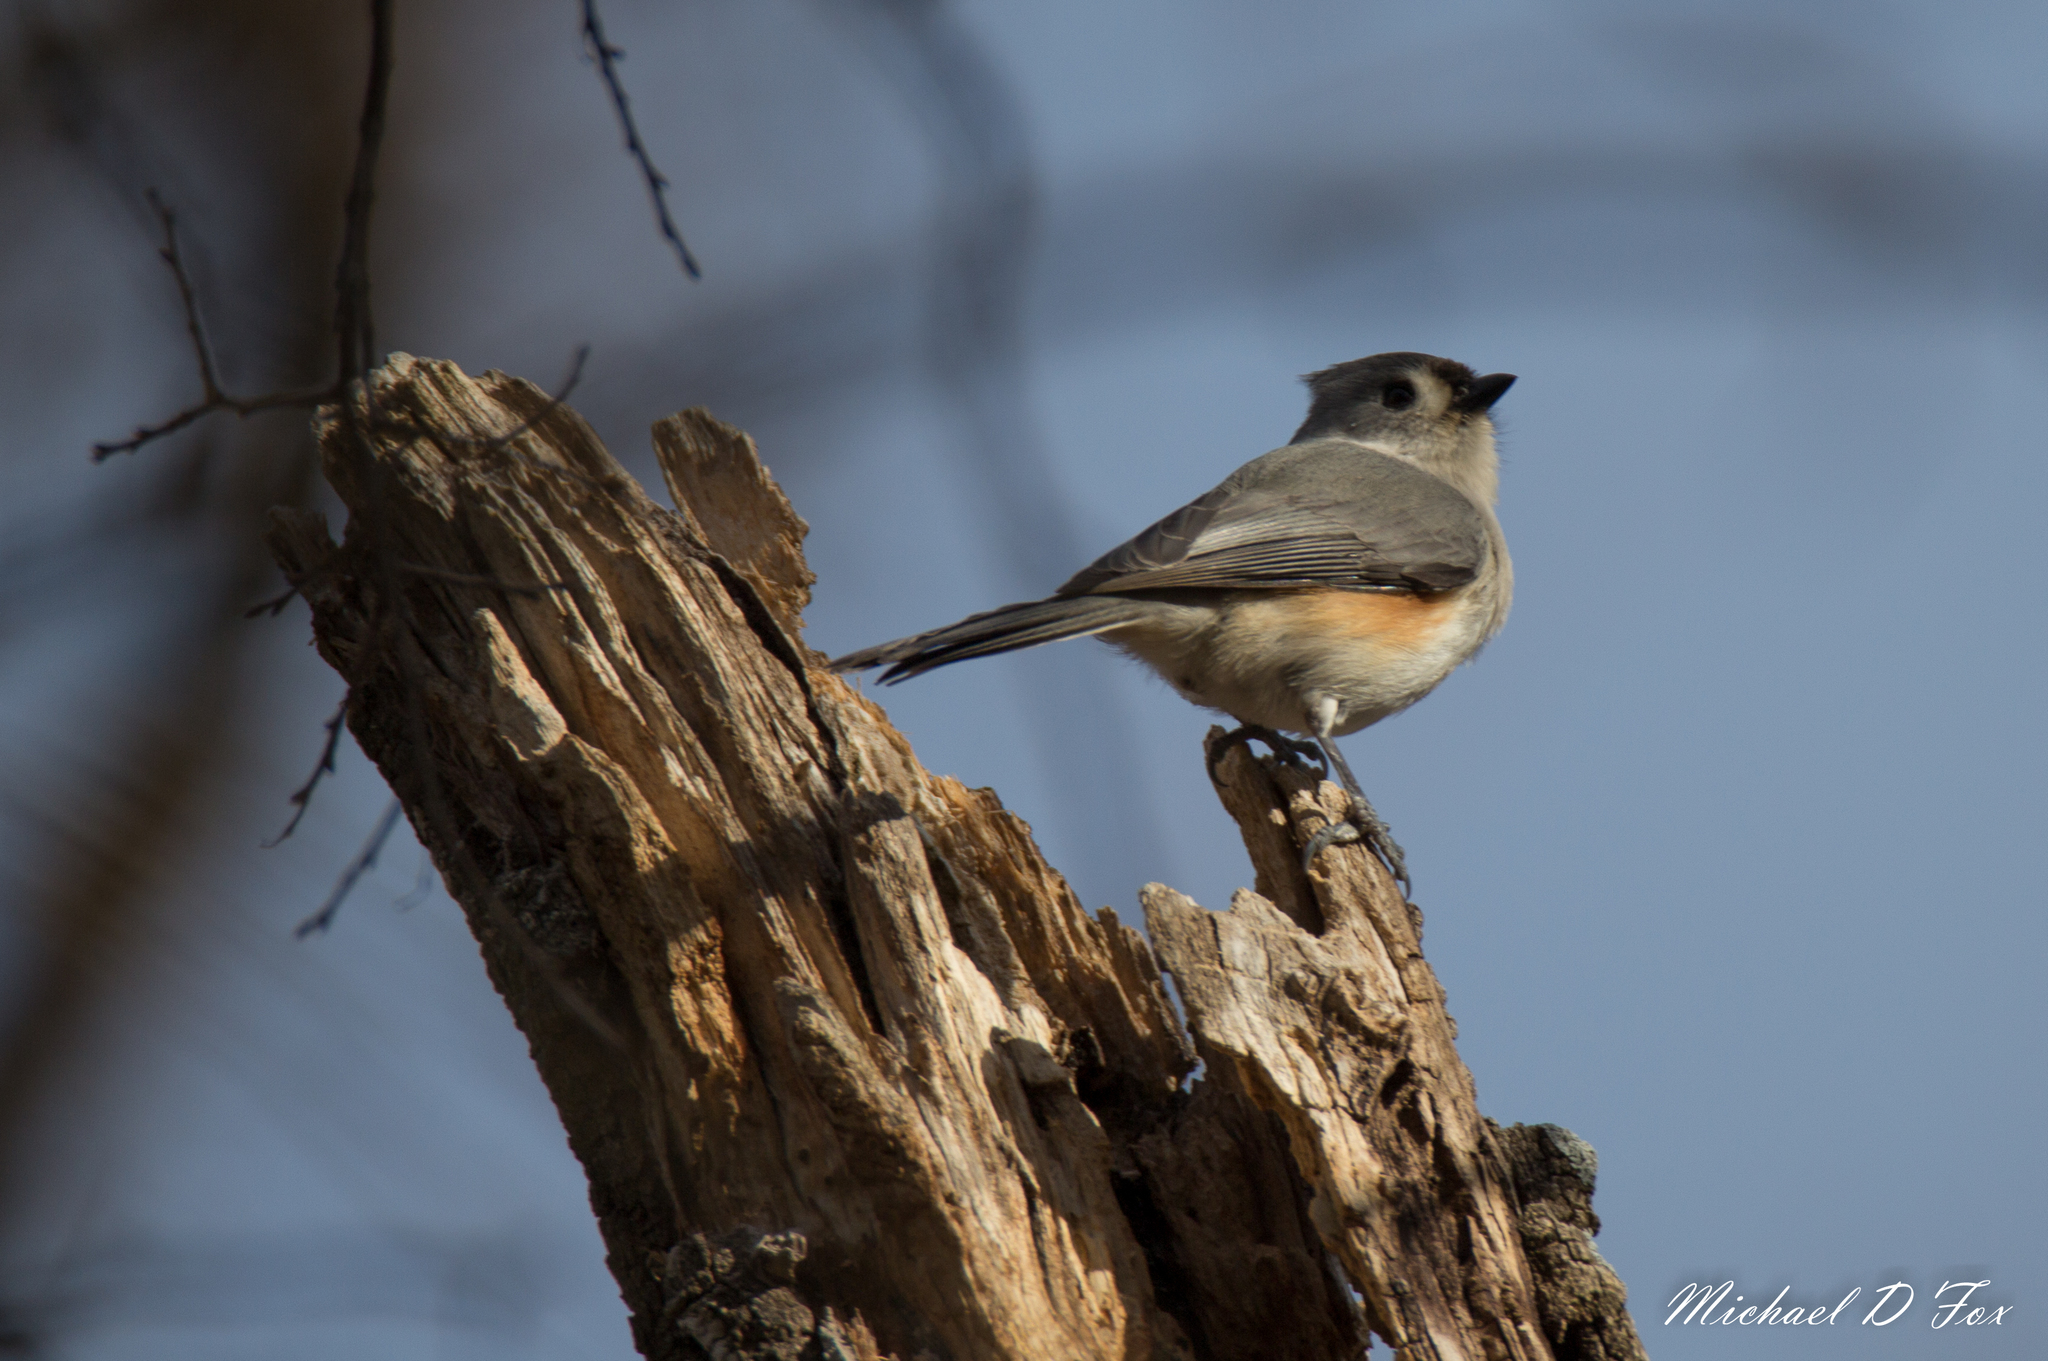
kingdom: Animalia
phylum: Chordata
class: Aves
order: Passeriformes
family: Paridae
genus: Baeolophus
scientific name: Baeolophus bicolor
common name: Tufted titmouse
